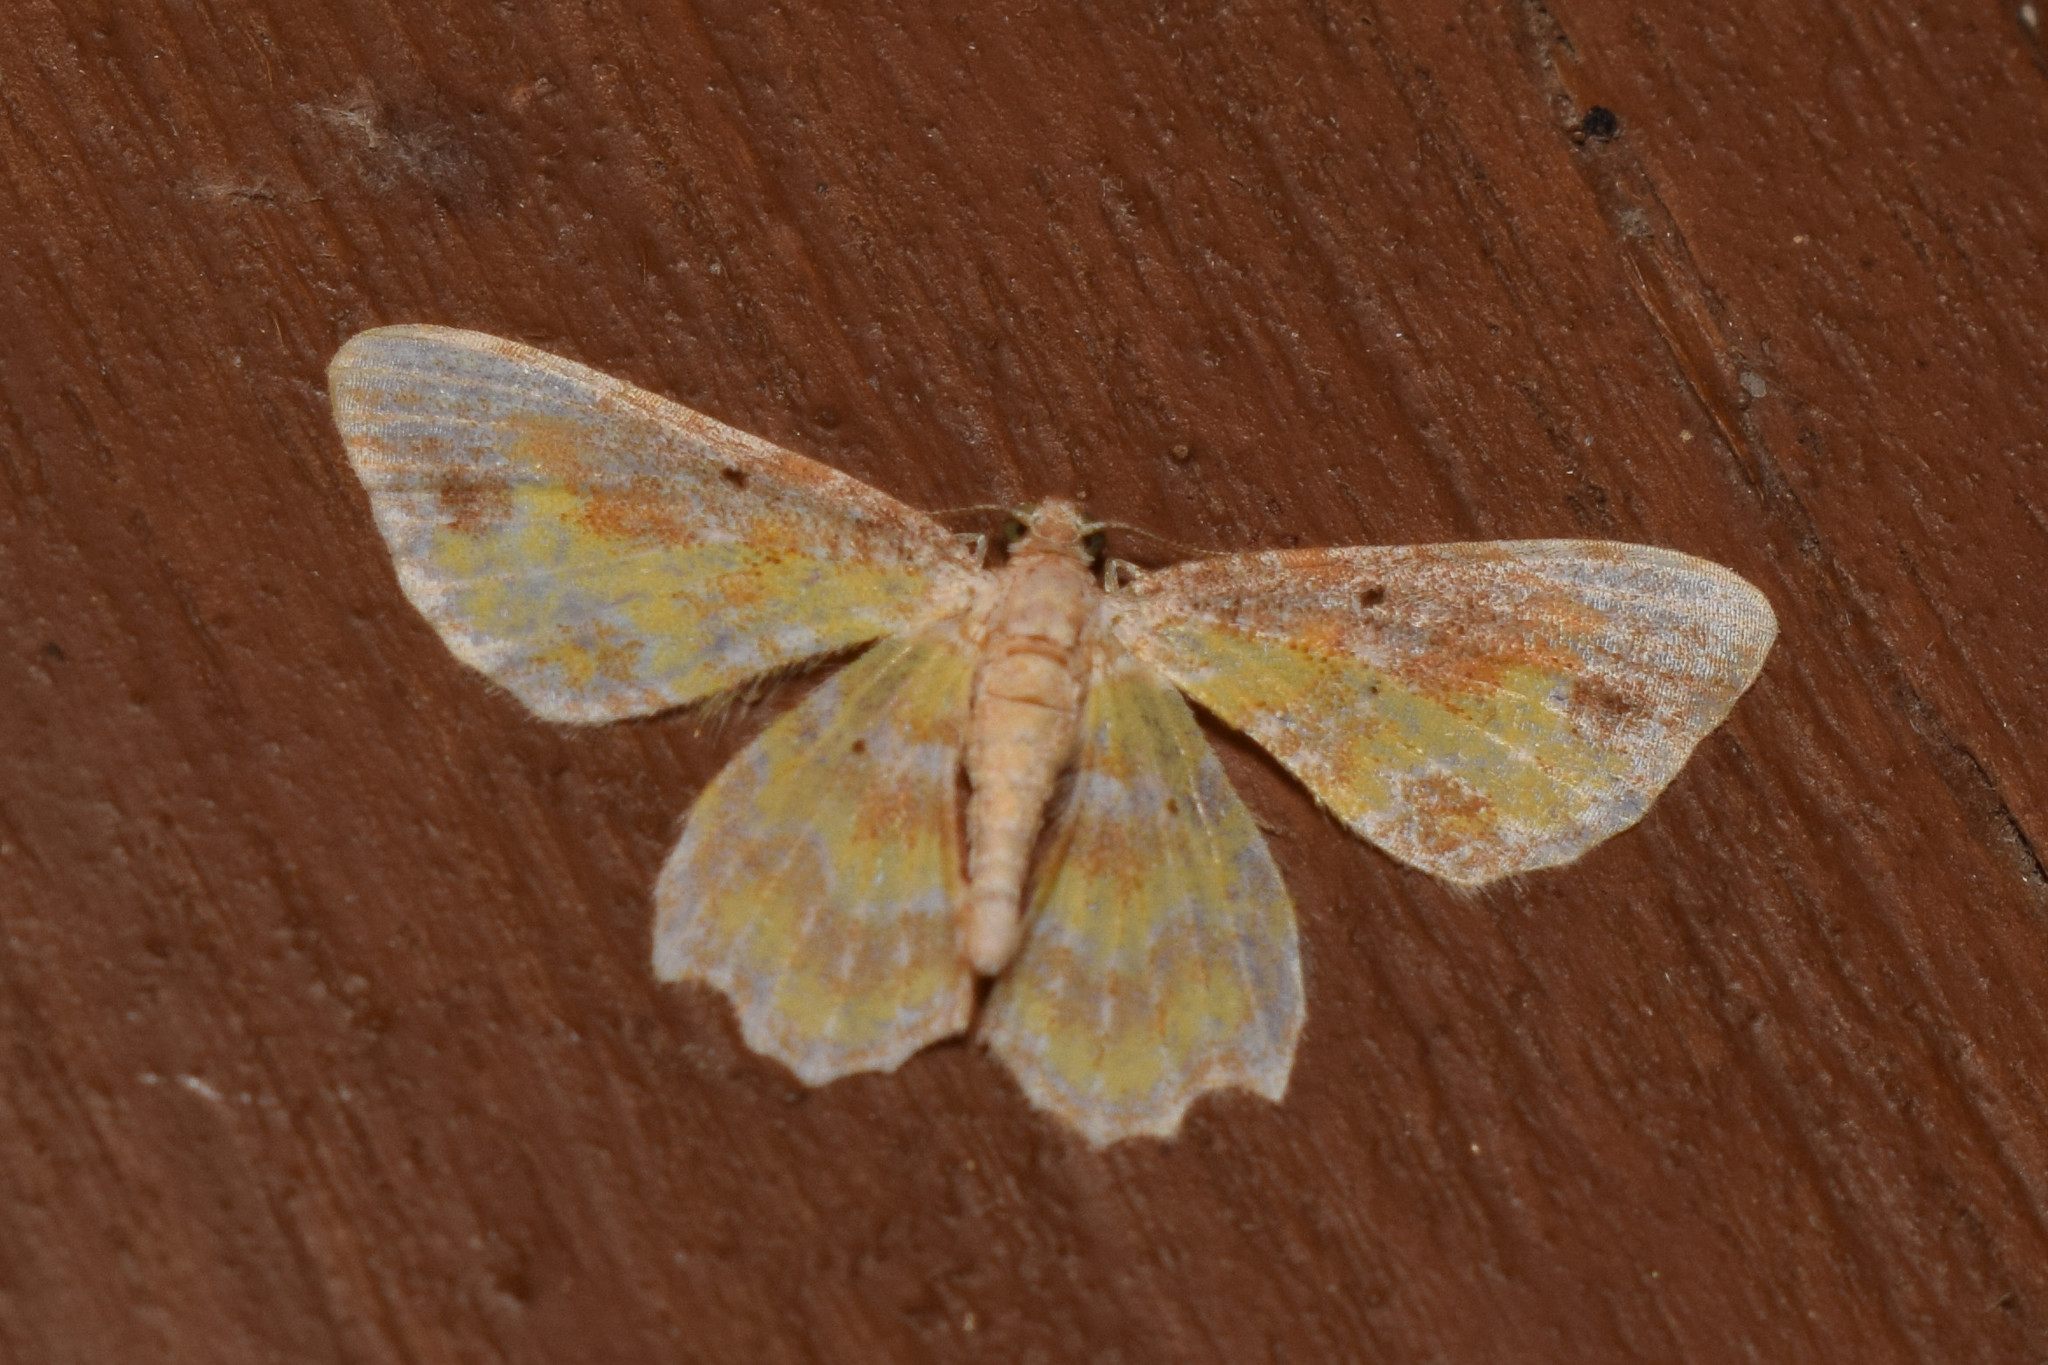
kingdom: Animalia
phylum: Arthropoda
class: Insecta
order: Lepidoptera
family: Geometridae
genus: Acolutha
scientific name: Acolutha pictaria
